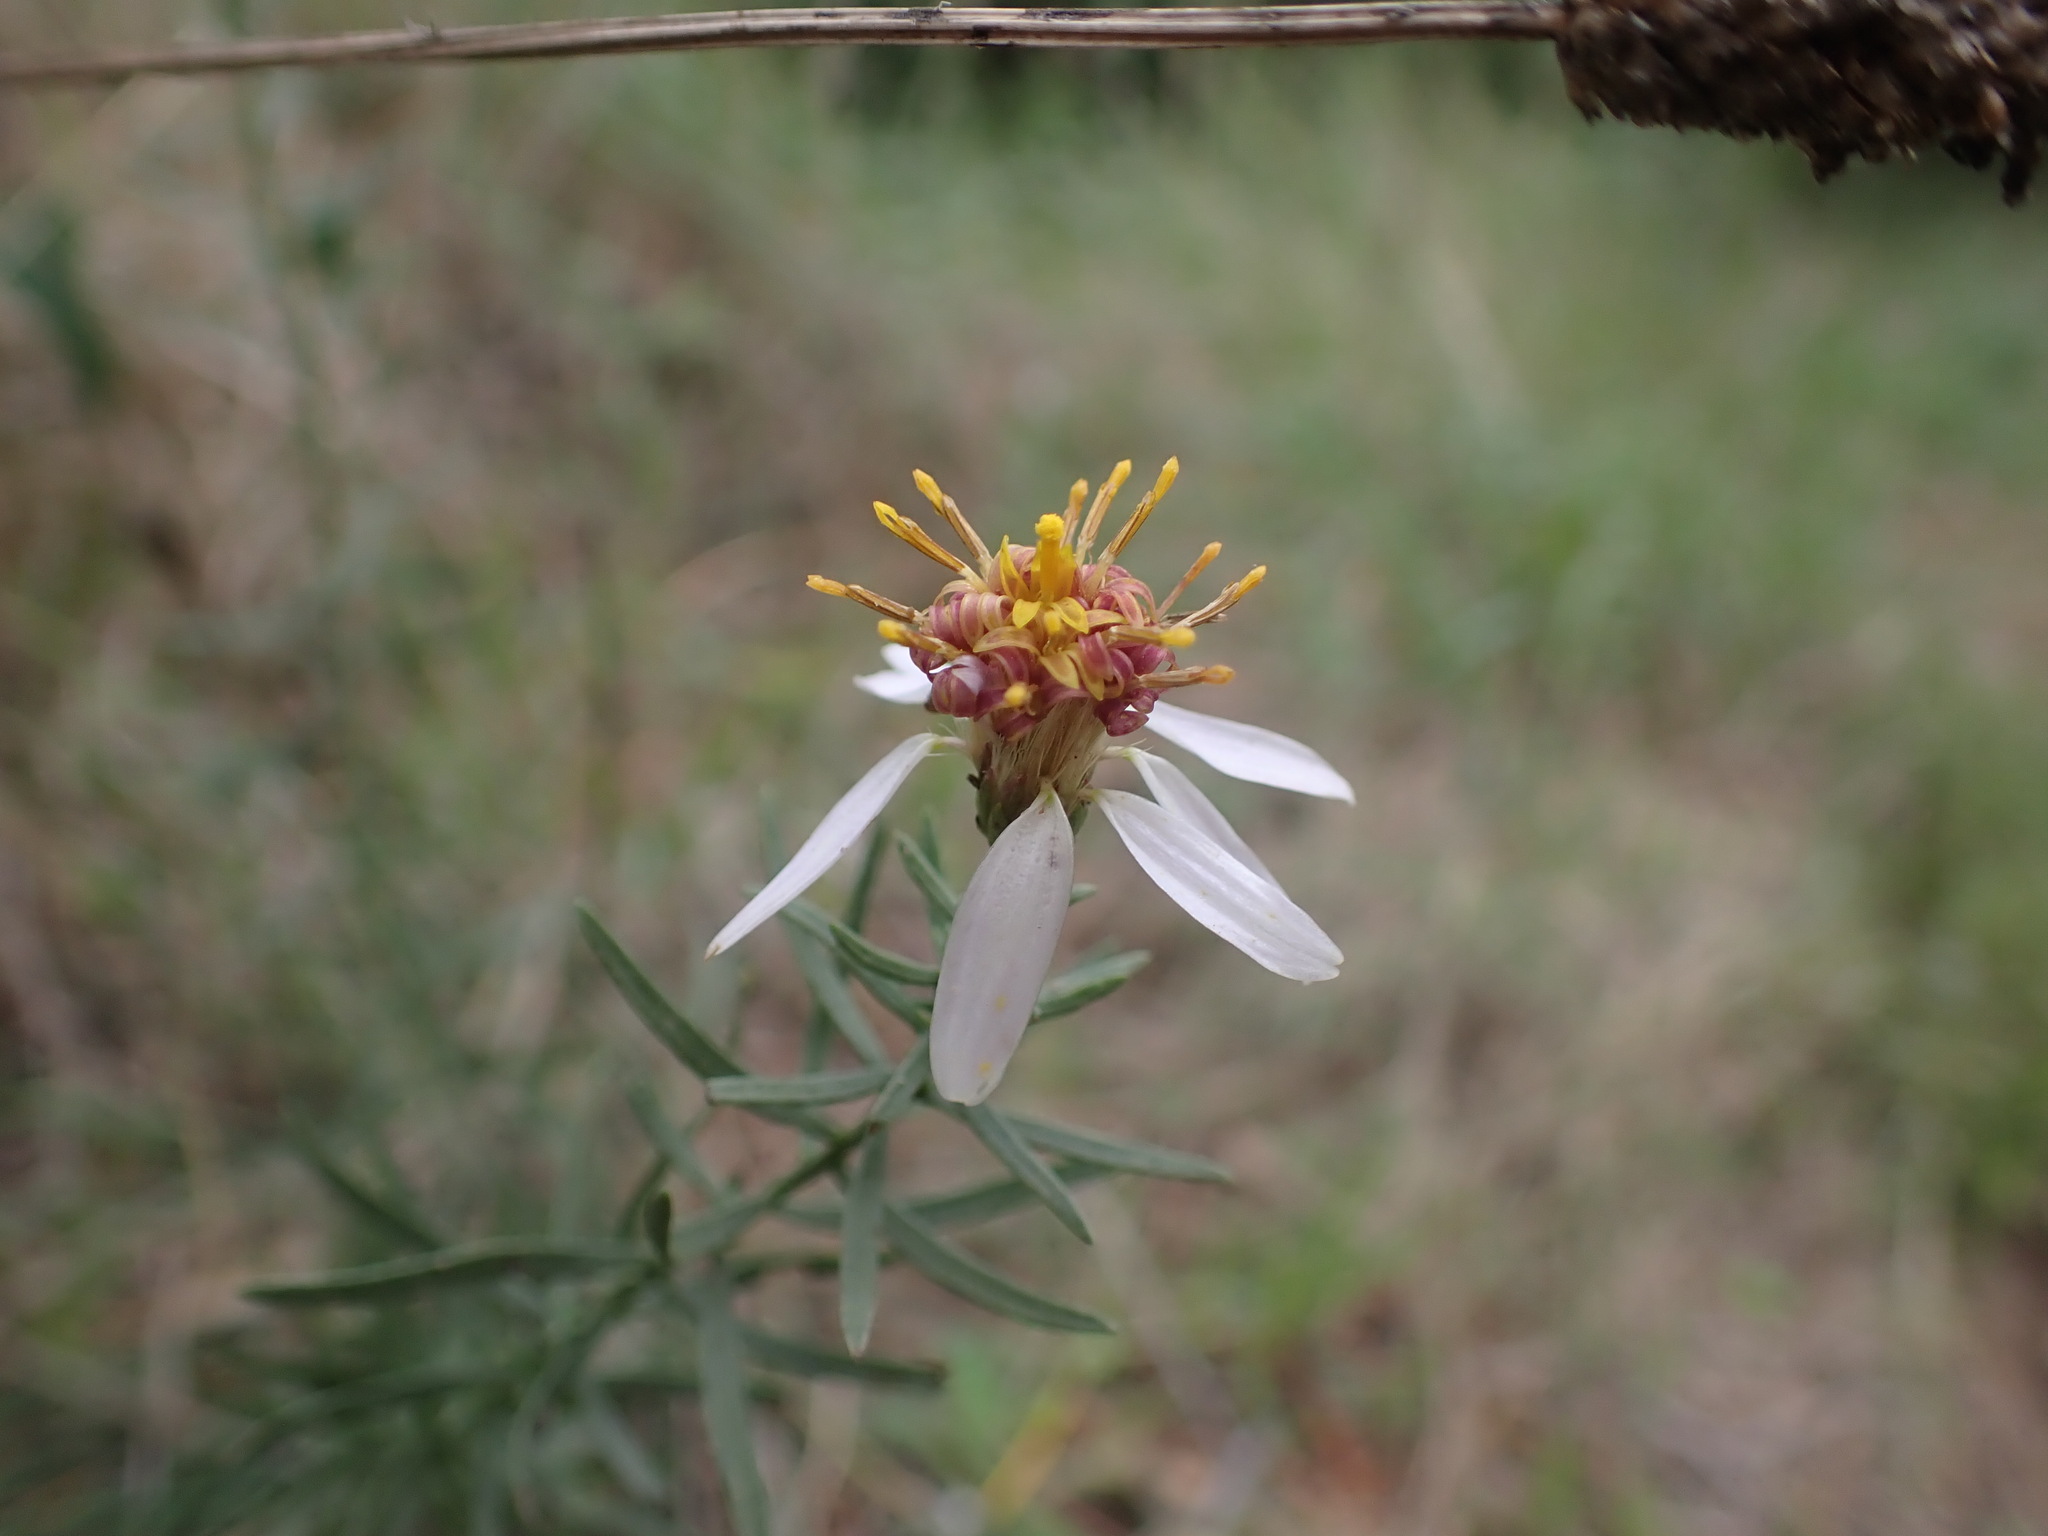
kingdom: Plantae
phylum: Tracheophyta
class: Magnoliopsida
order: Asterales
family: Asteraceae
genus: Galatella
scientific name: Galatella sedifolia
